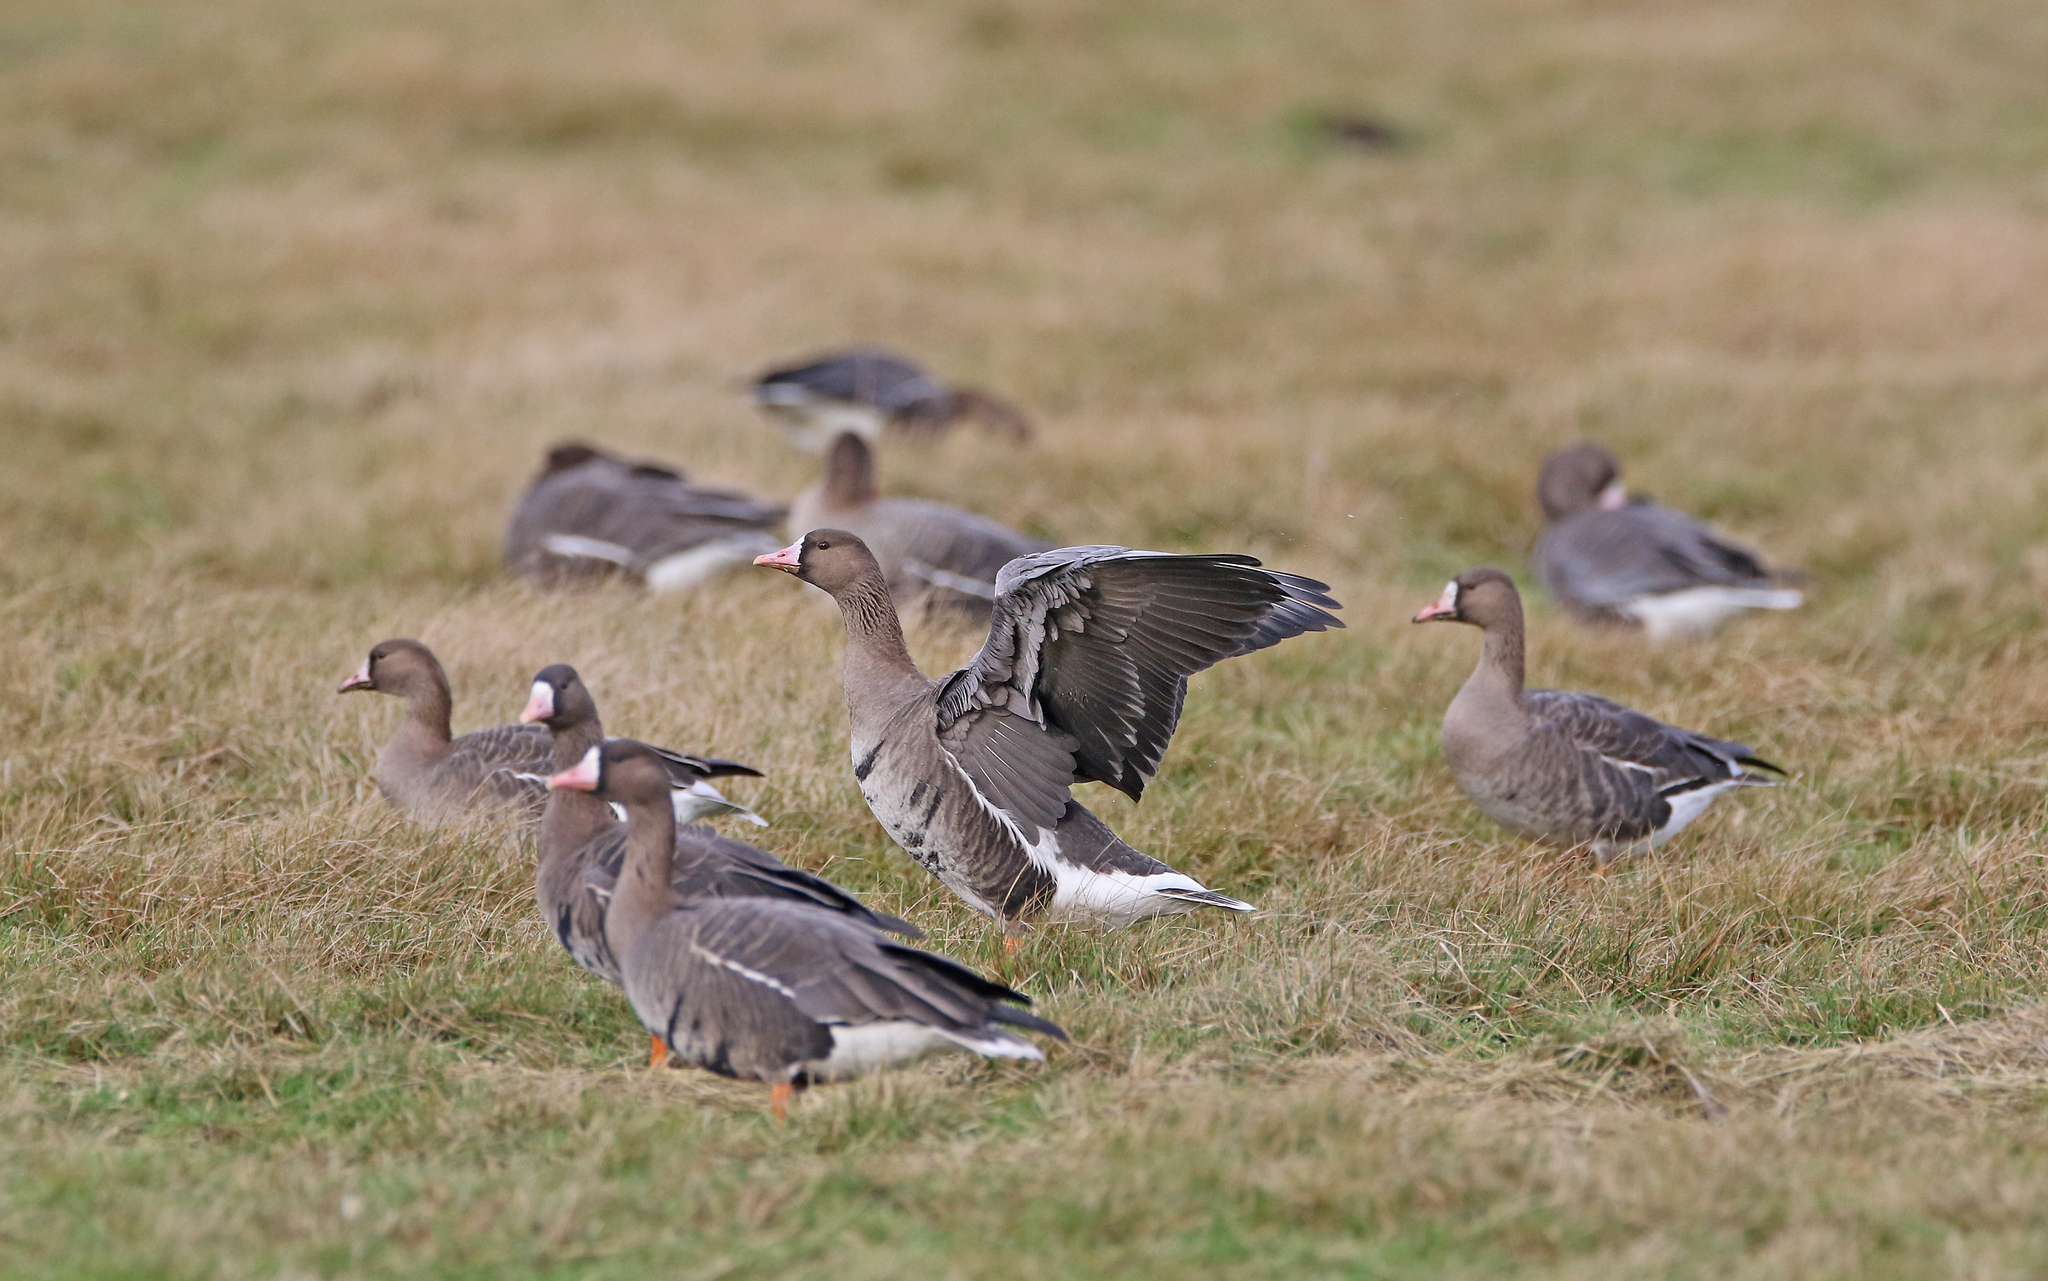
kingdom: Animalia
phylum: Chordata
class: Aves
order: Anseriformes
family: Anatidae
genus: Anser
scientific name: Anser albifrons
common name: Greater white-fronted goose
